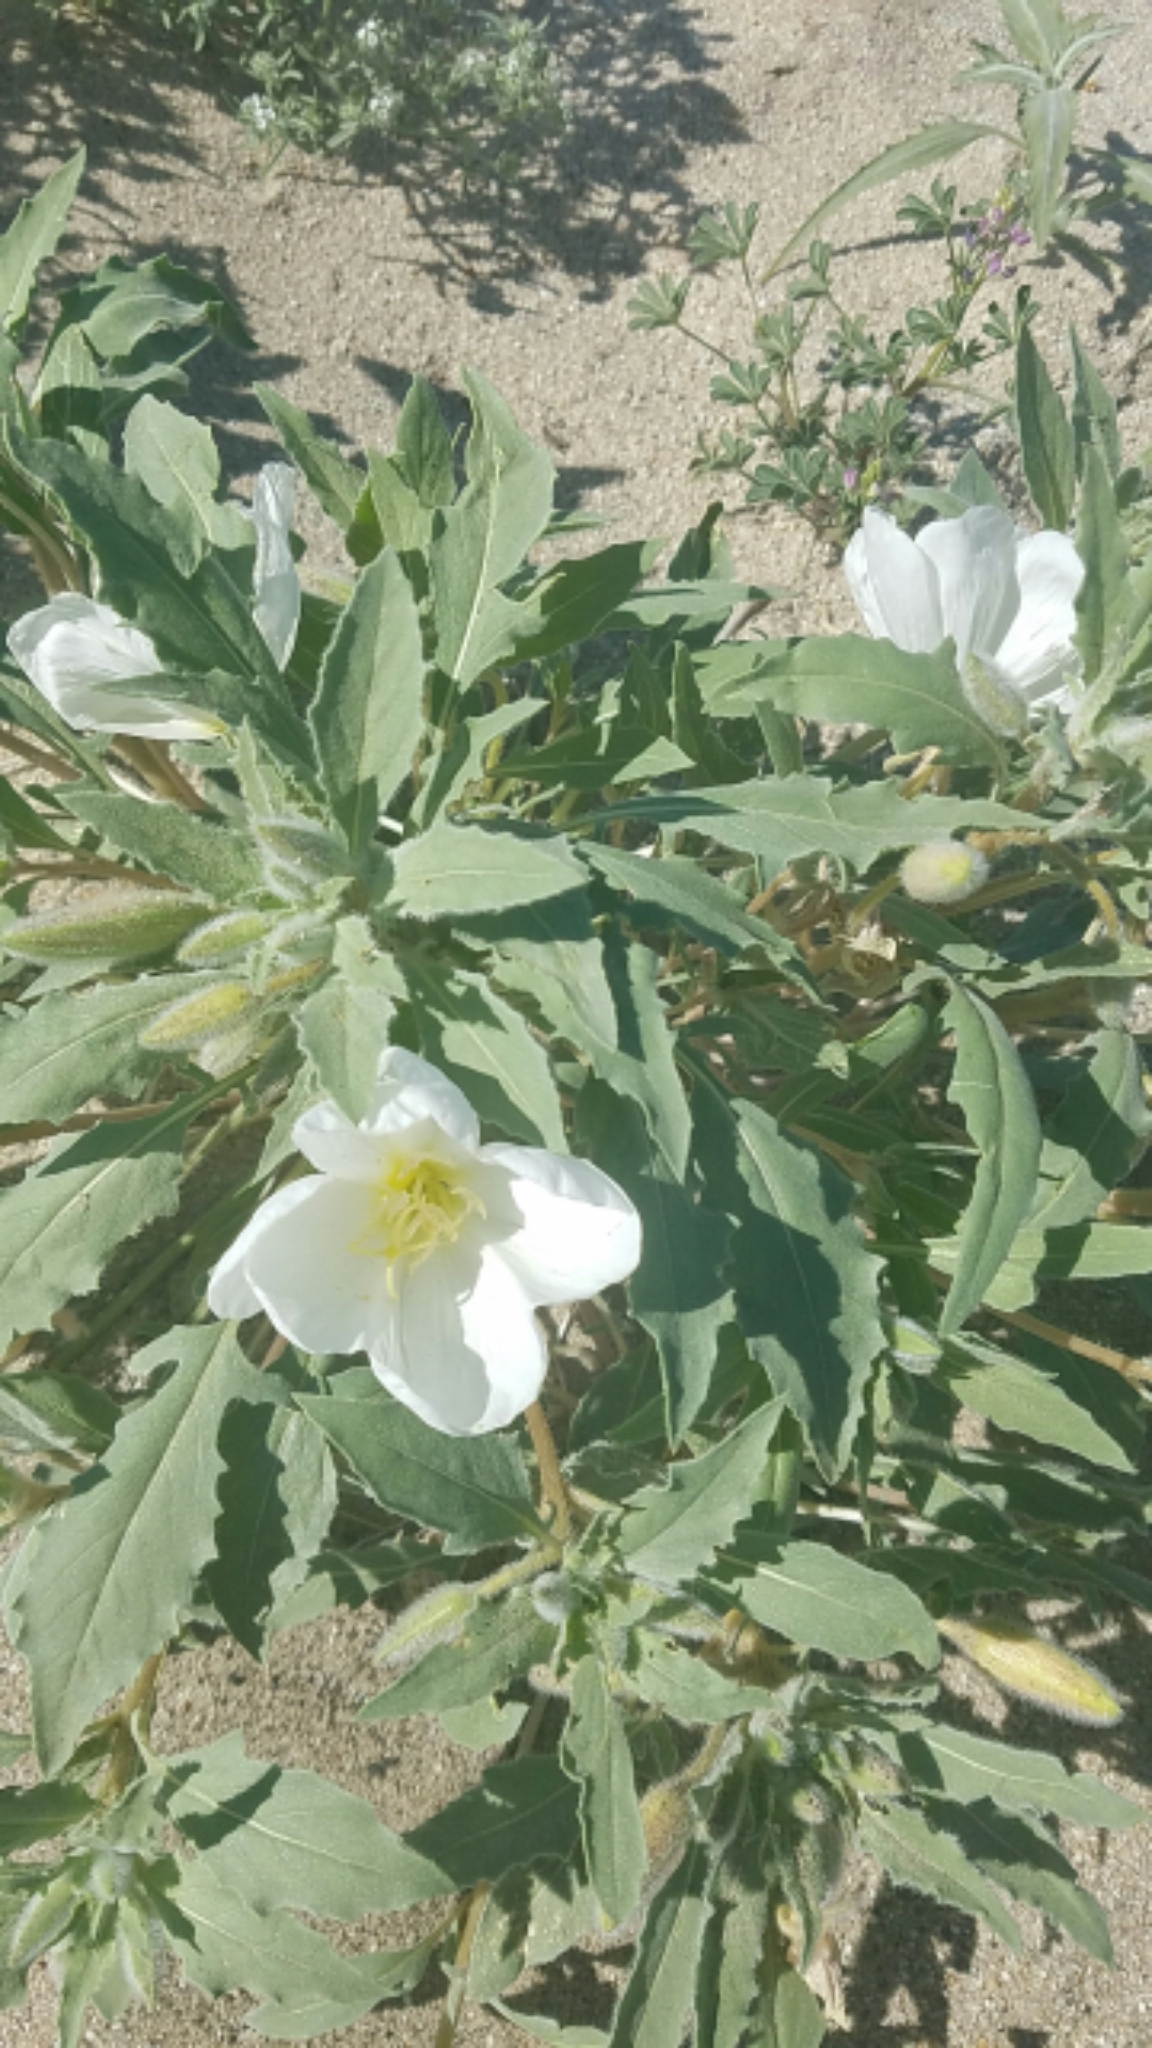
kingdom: Plantae
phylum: Tracheophyta
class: Magnoliopsida
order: Myrtales
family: Onagraceae
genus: Oenothera
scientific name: Oenothera deltoides
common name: Basket evening-primrose
